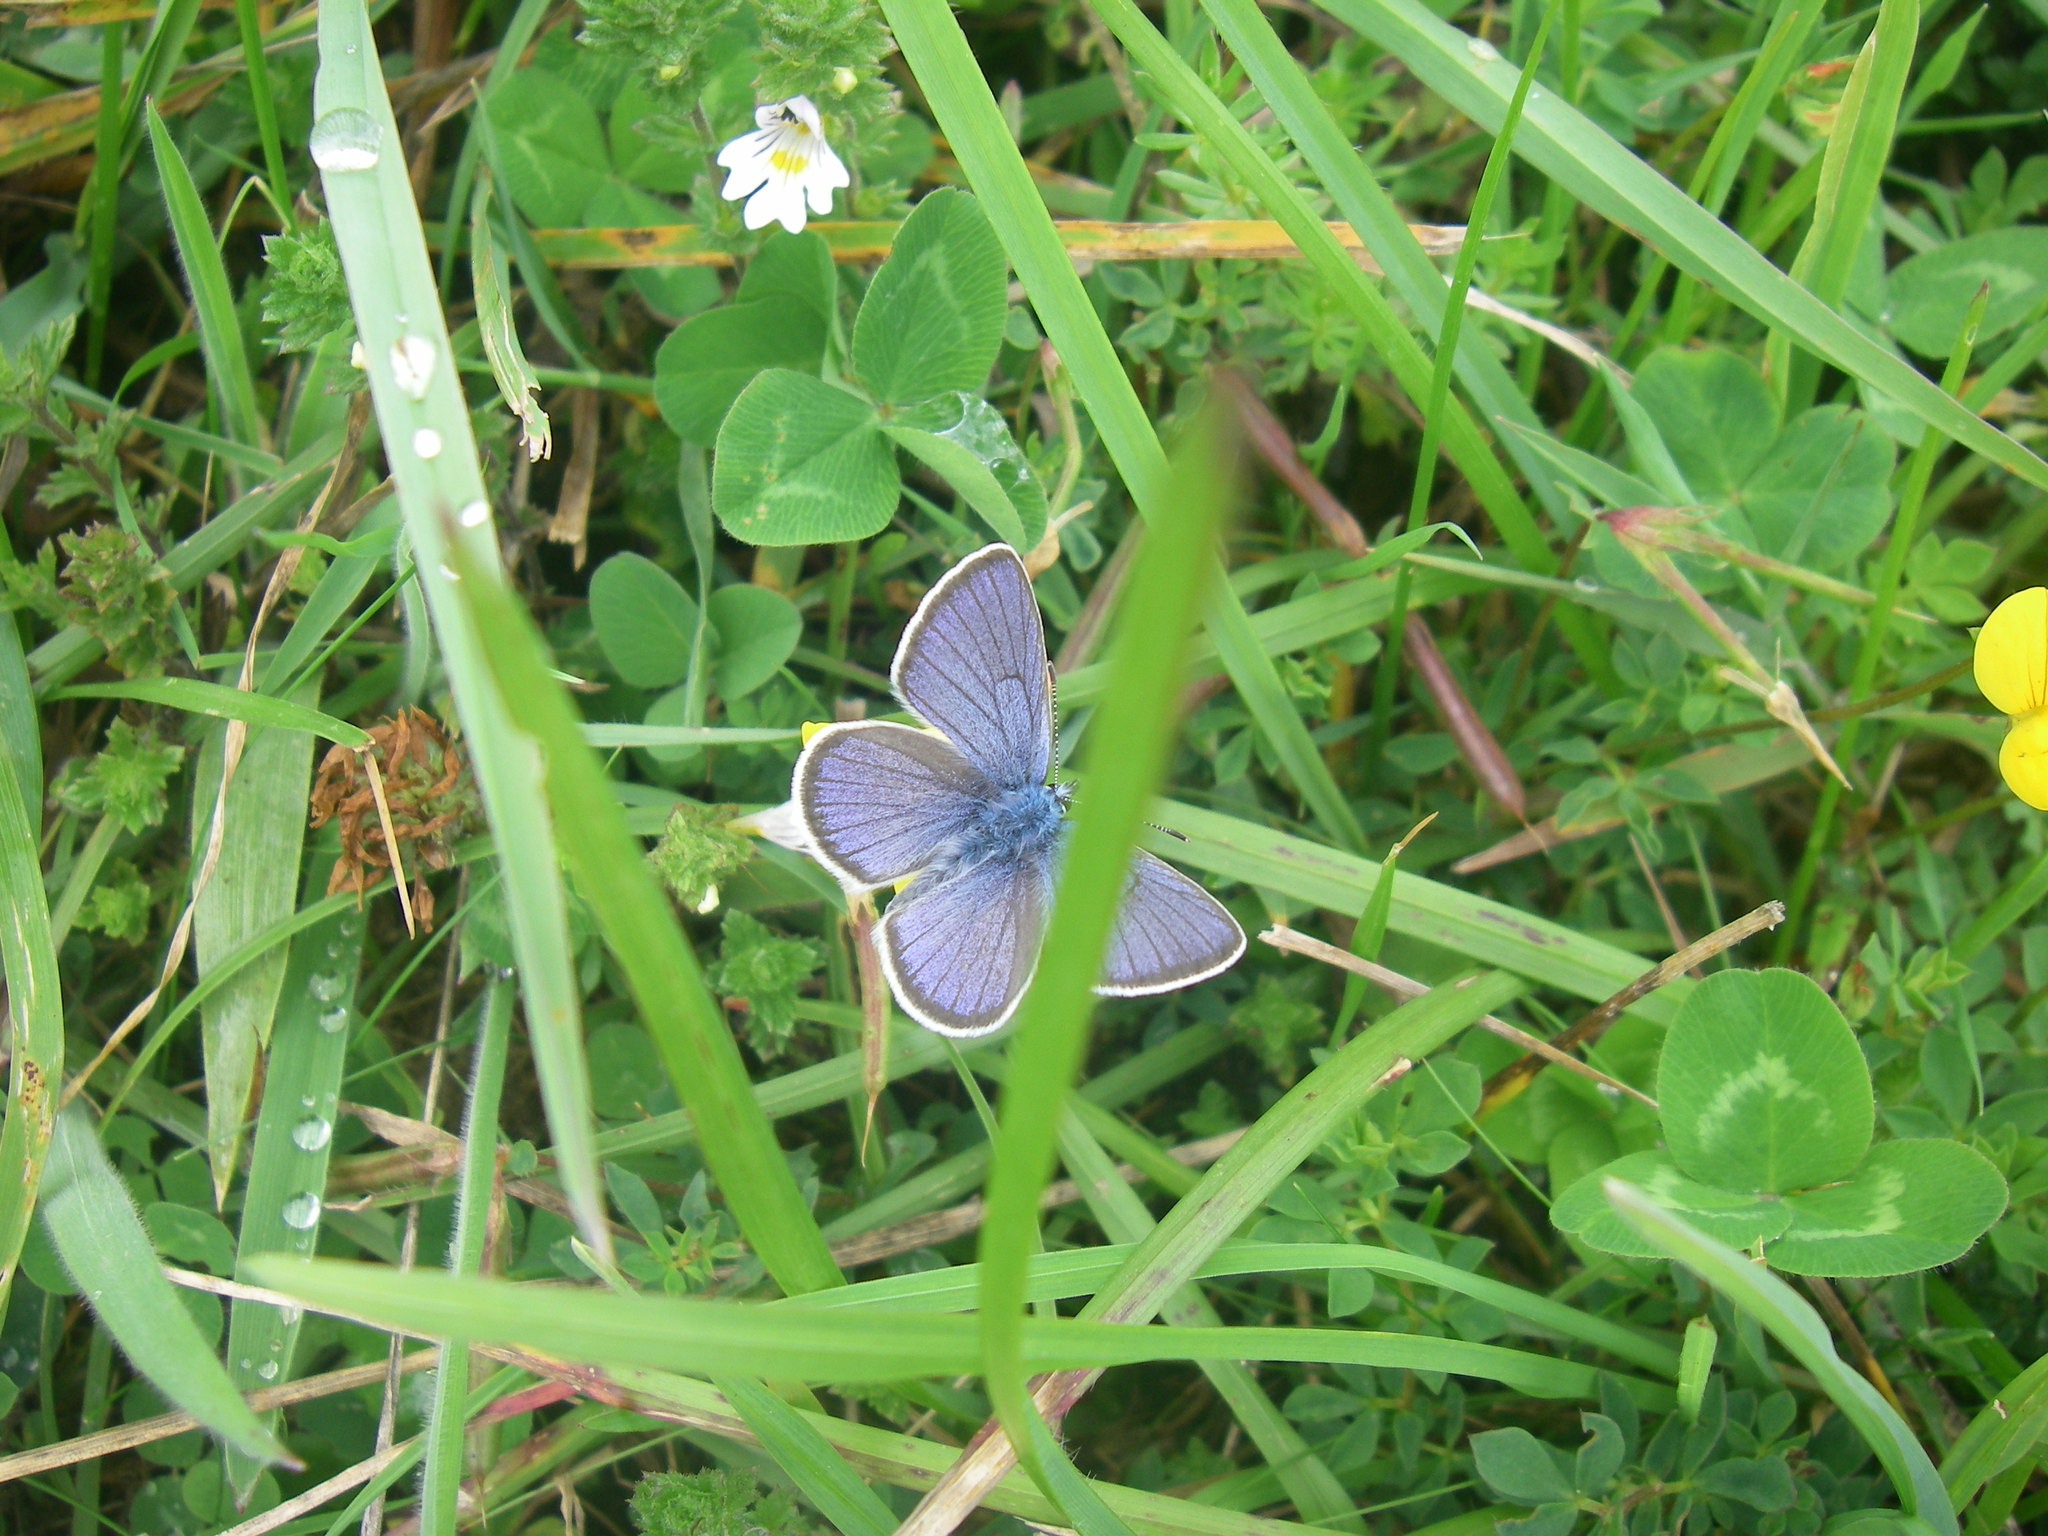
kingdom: Animalia
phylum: Arthropoda
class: Insecta
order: Lepidoptera
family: Lycaenidae
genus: Cyaniris
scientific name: Cyaniris semiargus
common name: Mazarine blue
